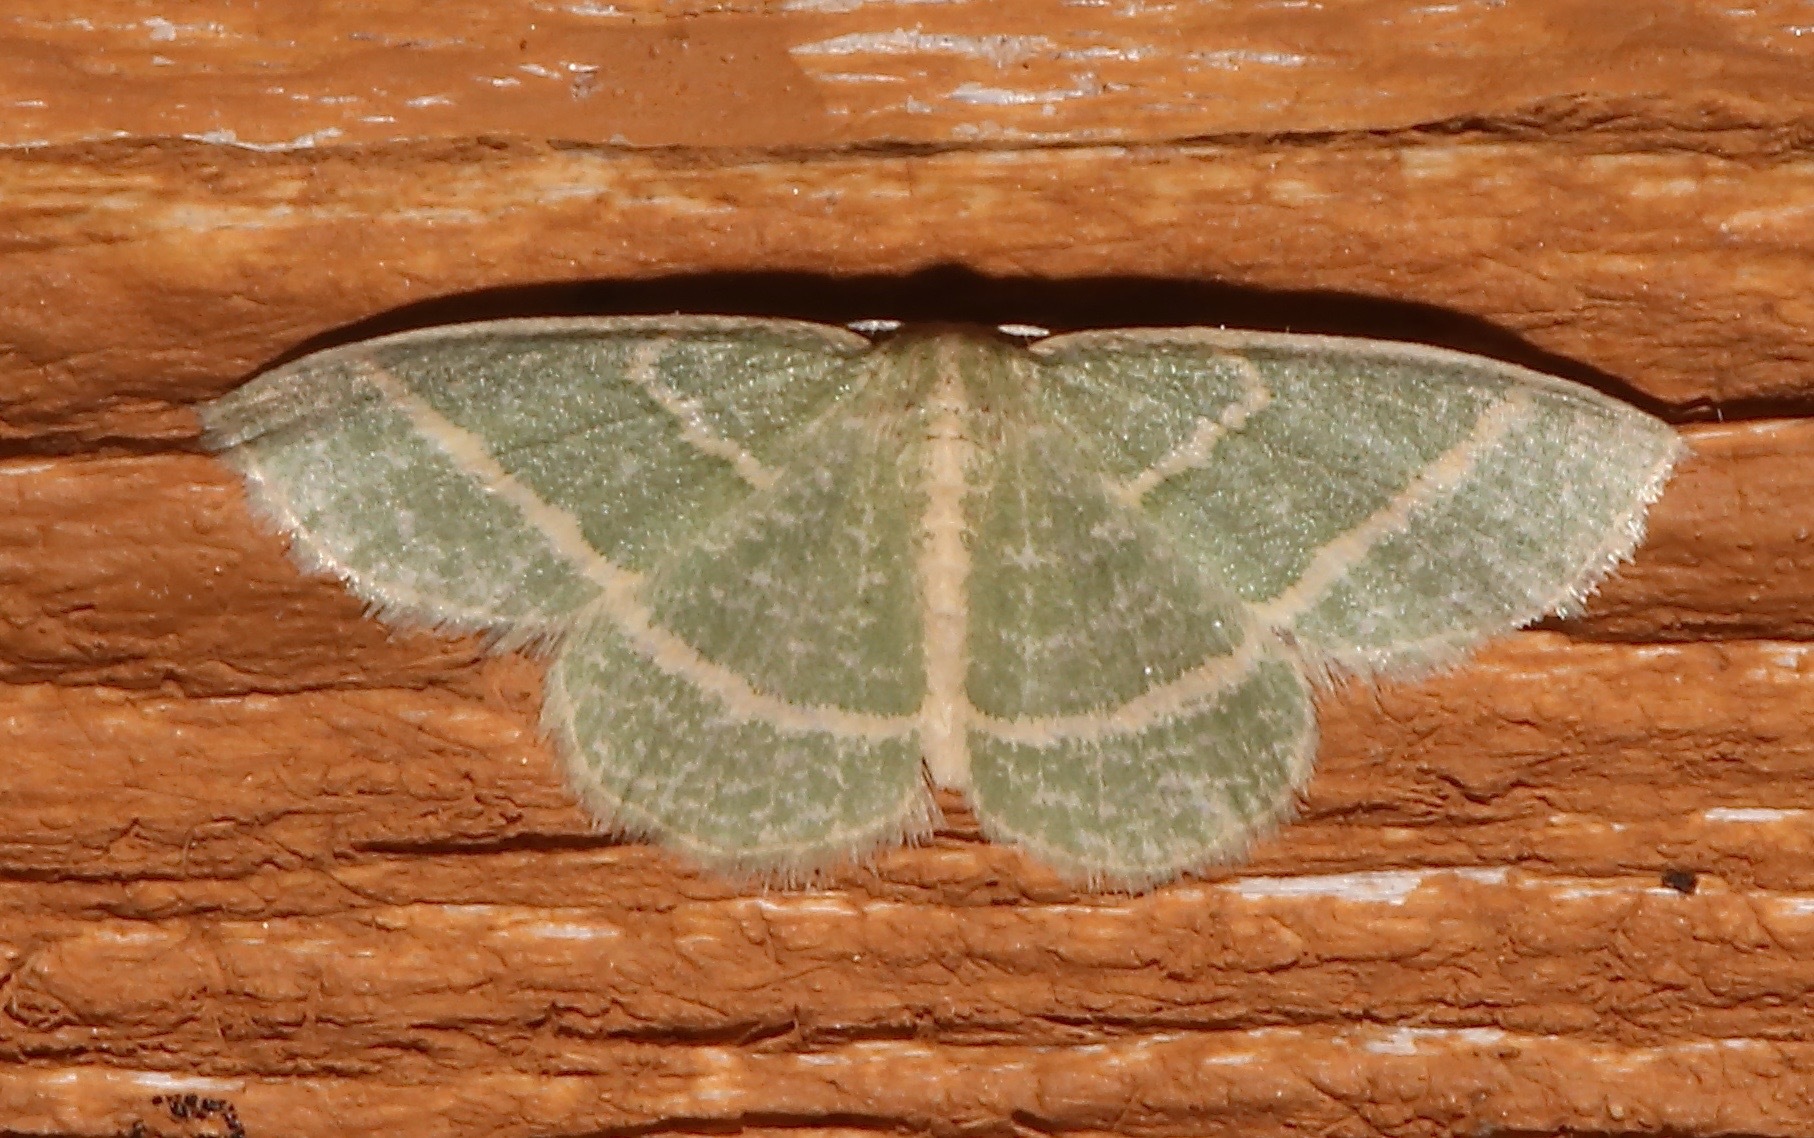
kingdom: Animalia
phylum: Arthropoda
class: Insecta
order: Lepidoptera
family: Geometridae
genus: Chlorochlamys
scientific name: Chlorochlamys chloroleucaria
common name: Blackberry looper
